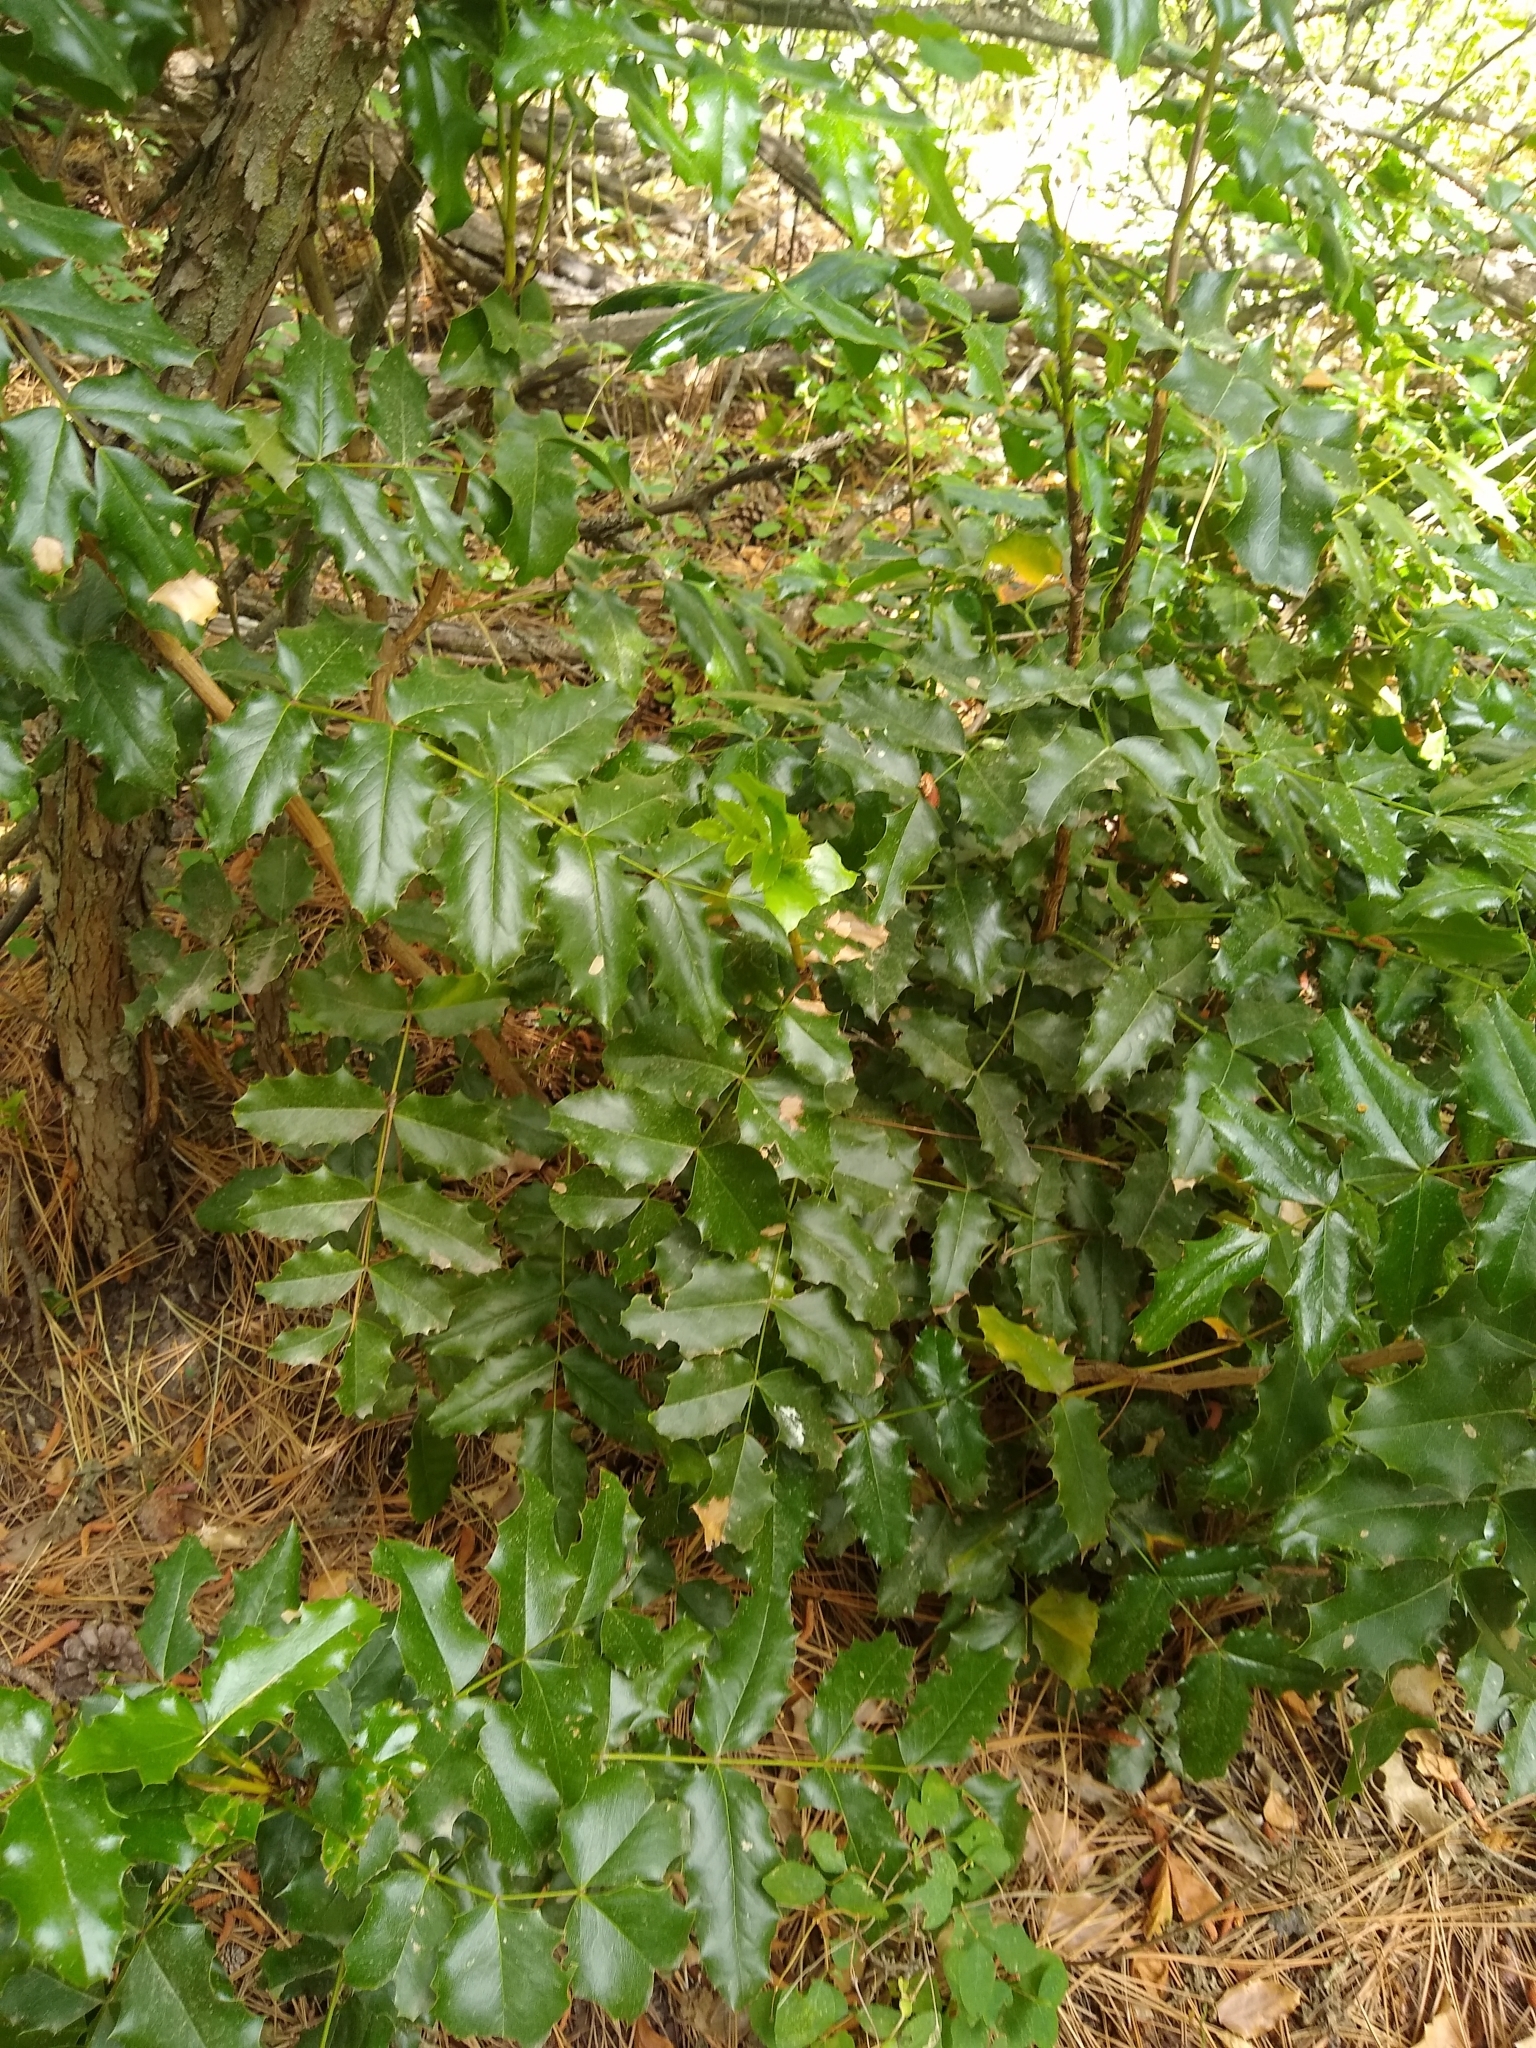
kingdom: Plantae
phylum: Tracheophyta
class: Magnoliopsida
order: Ranunculales
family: Berberidaceae
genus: Mahonia
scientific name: Mahonia aquifolium
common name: Oregon-grape
